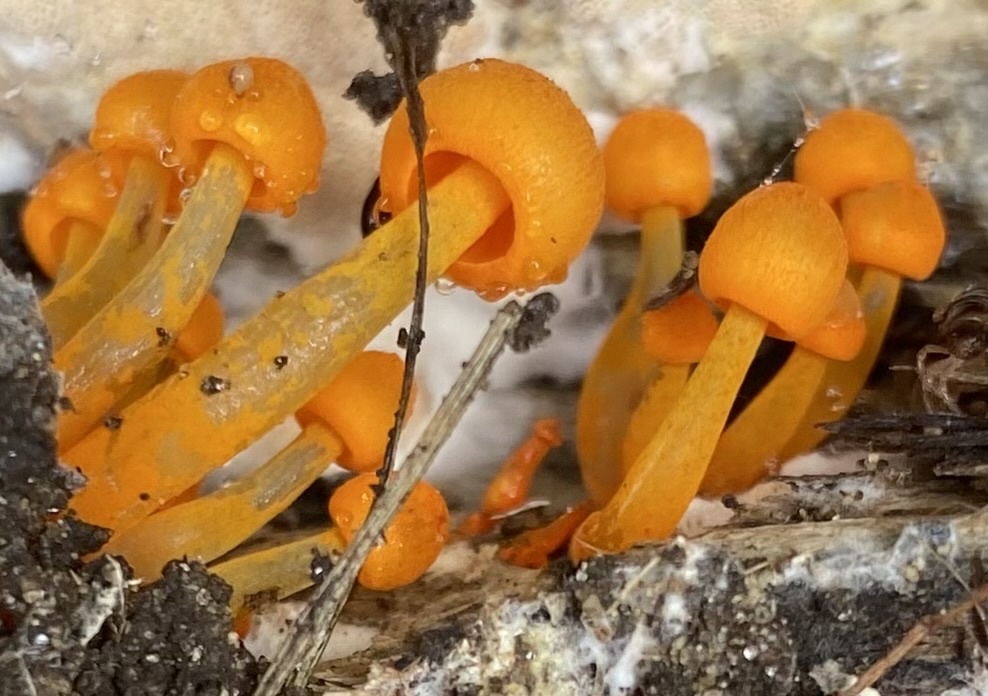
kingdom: Fungi
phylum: Basidiomycota
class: Agaricomycetes
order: Agaricales
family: Mycenaceae
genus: Mycena
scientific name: Mycena leaiana
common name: Orange mycena
